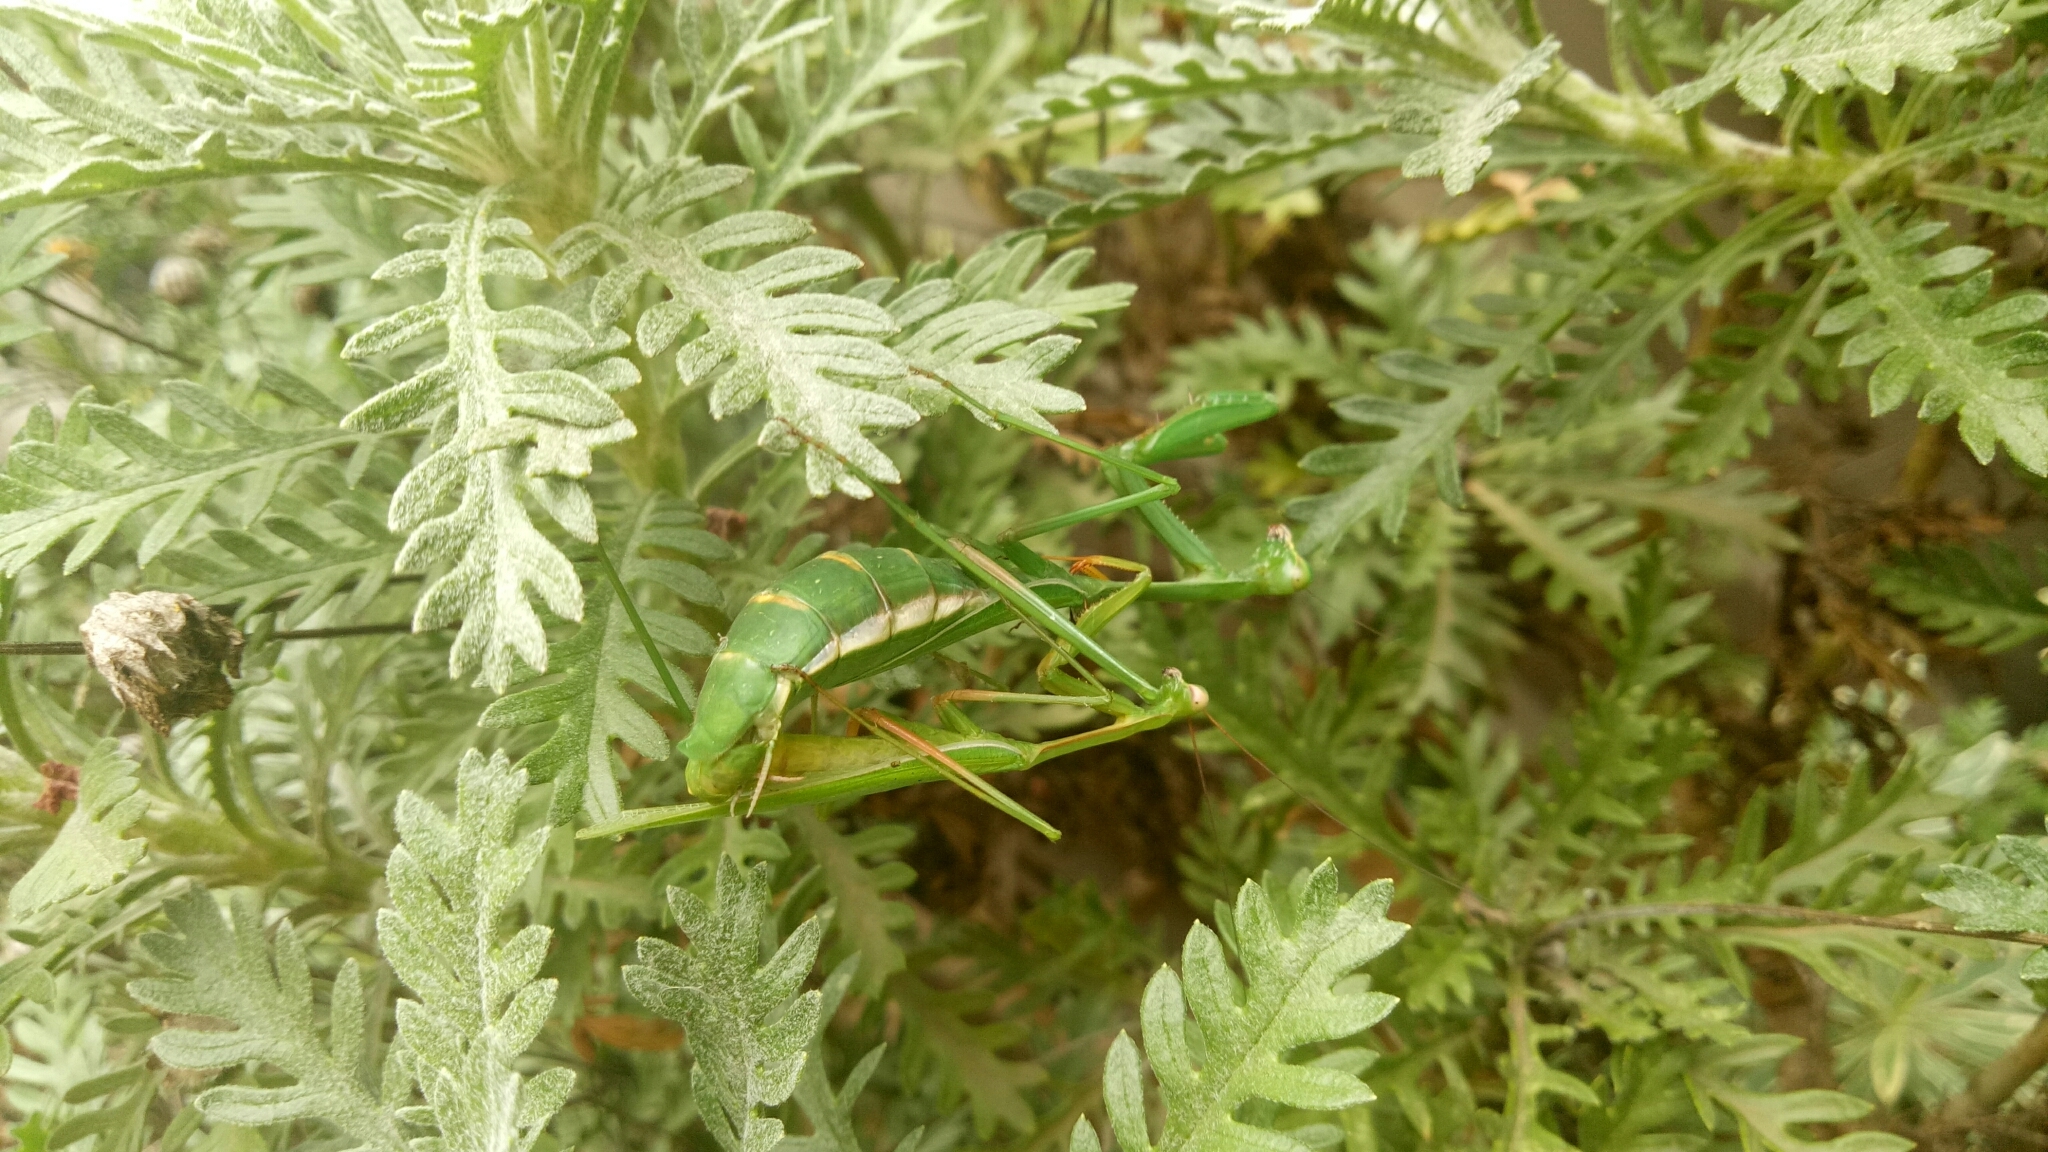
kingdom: Animalia
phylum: Arthropoda
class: Insecta
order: Mantodea
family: Mantidae
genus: Pseudomantis
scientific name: Pseudomantis albofimbriata
